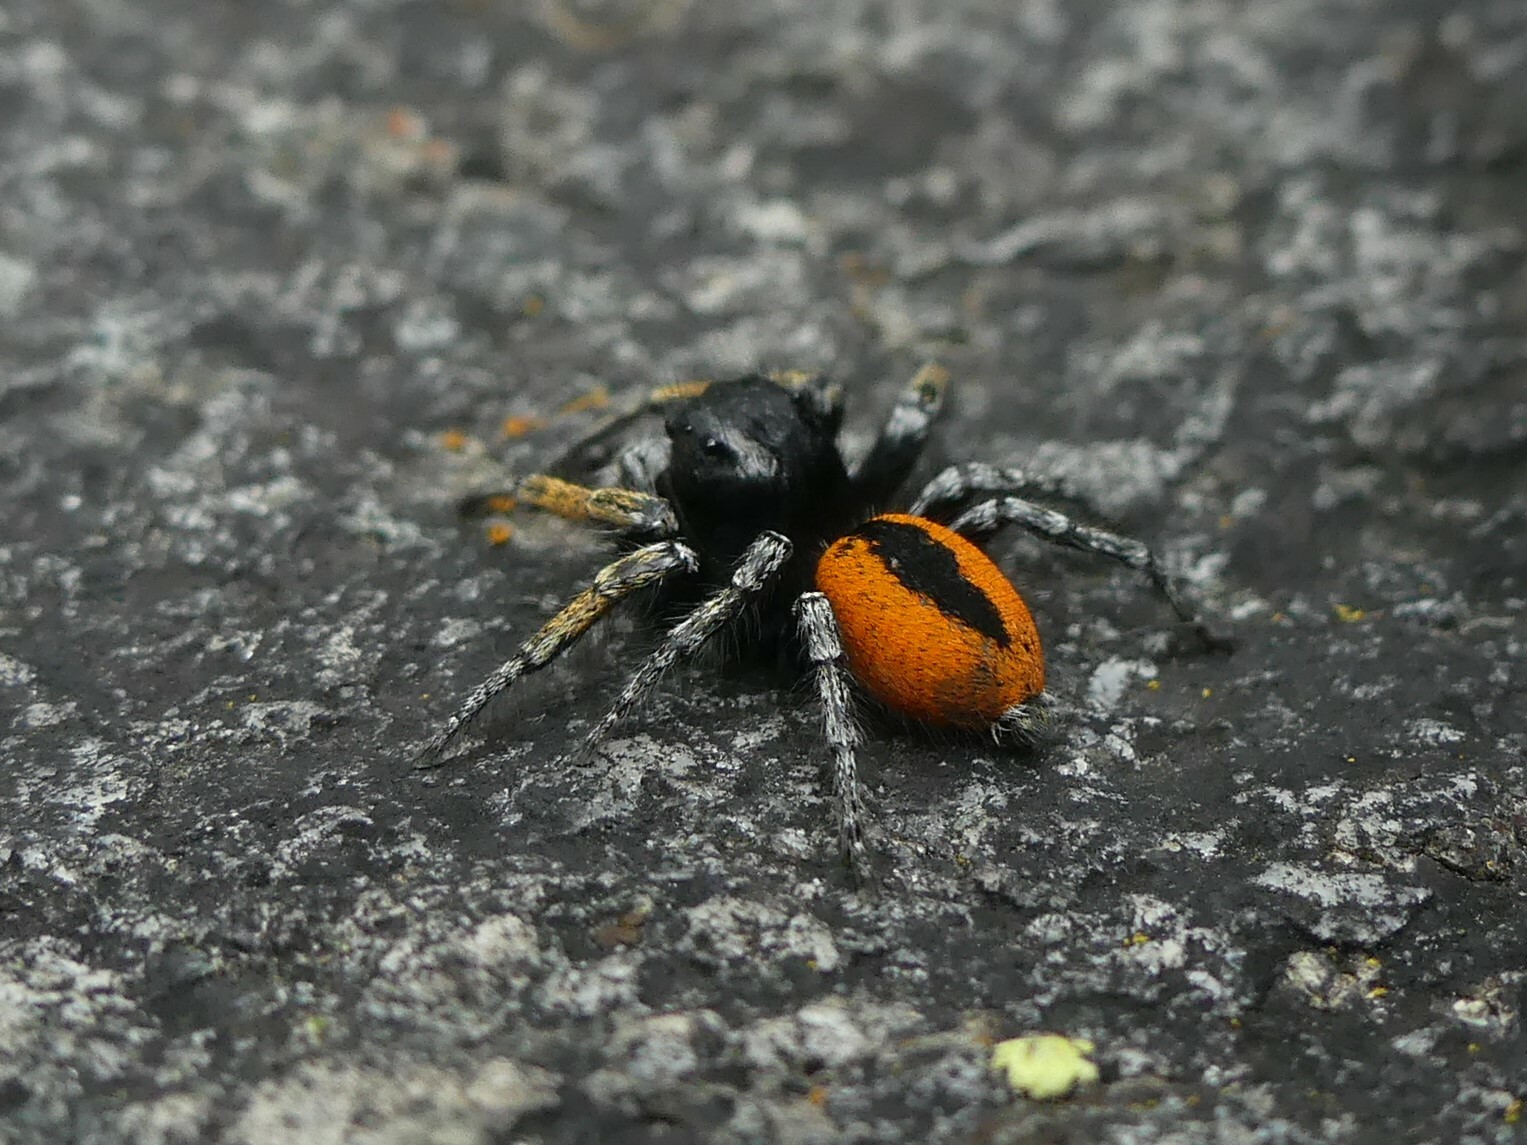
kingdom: Animalia
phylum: Arthropoda
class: Arachnida
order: Araneae
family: Salticidae
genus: Philaeus
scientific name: Philaeus chrysops
